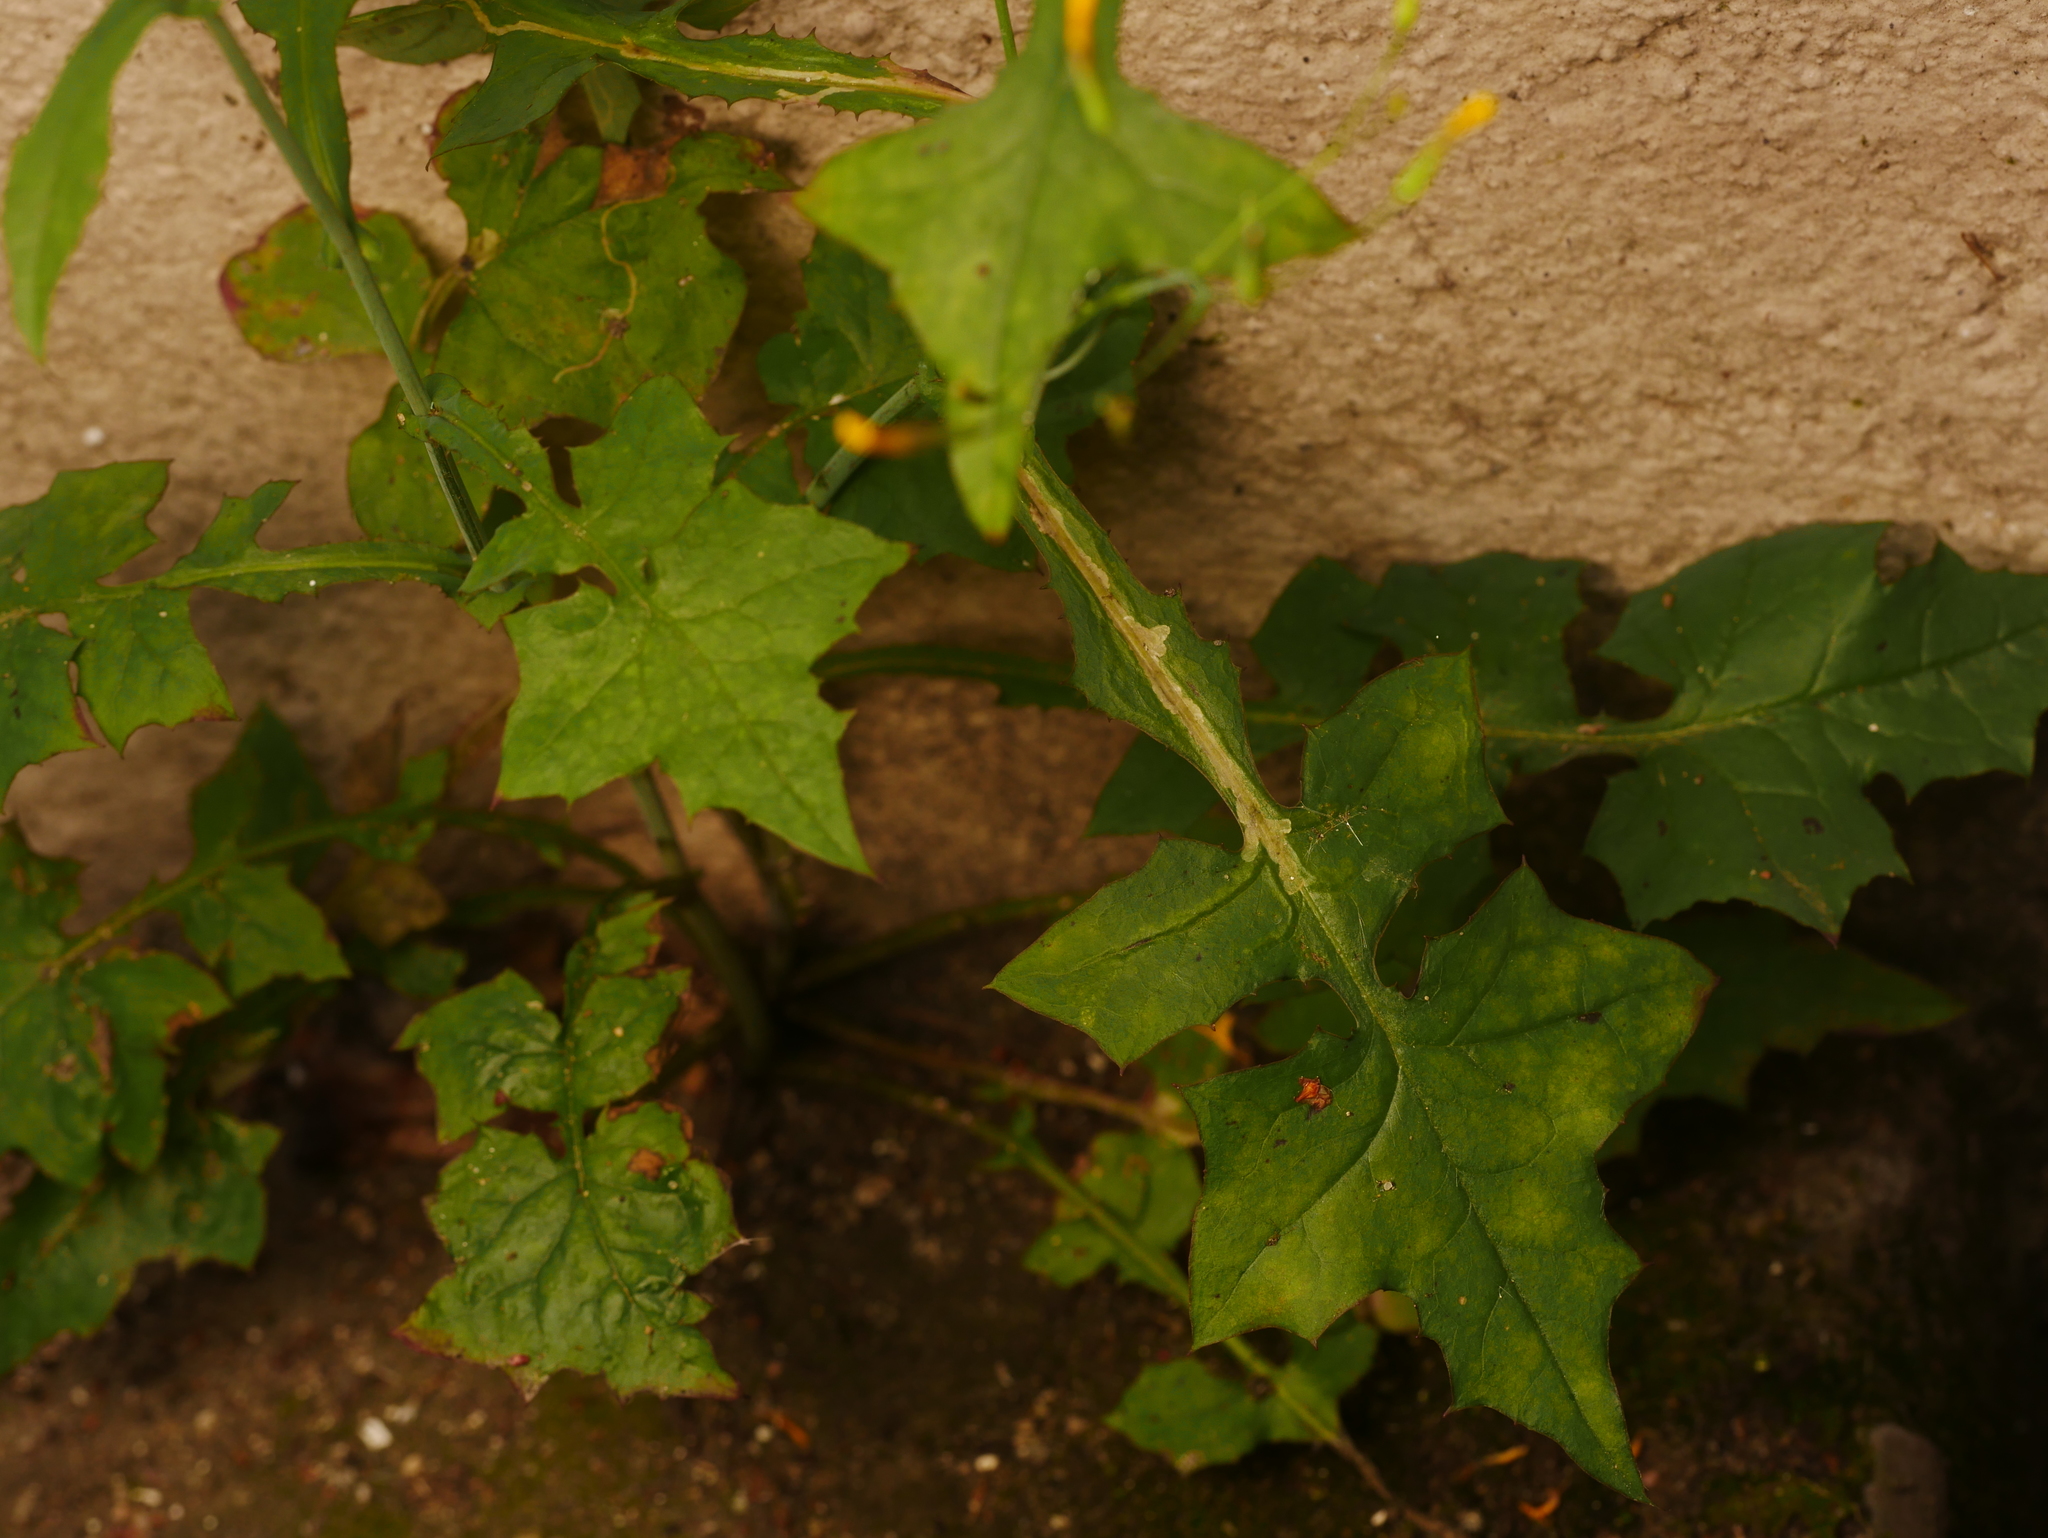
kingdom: Plantae
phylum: Tracheophyta
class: Magnoliopsida
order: Asterales
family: Asteraceae
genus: Mycelis
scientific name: Mycelis muralis
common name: Wall lettuce
